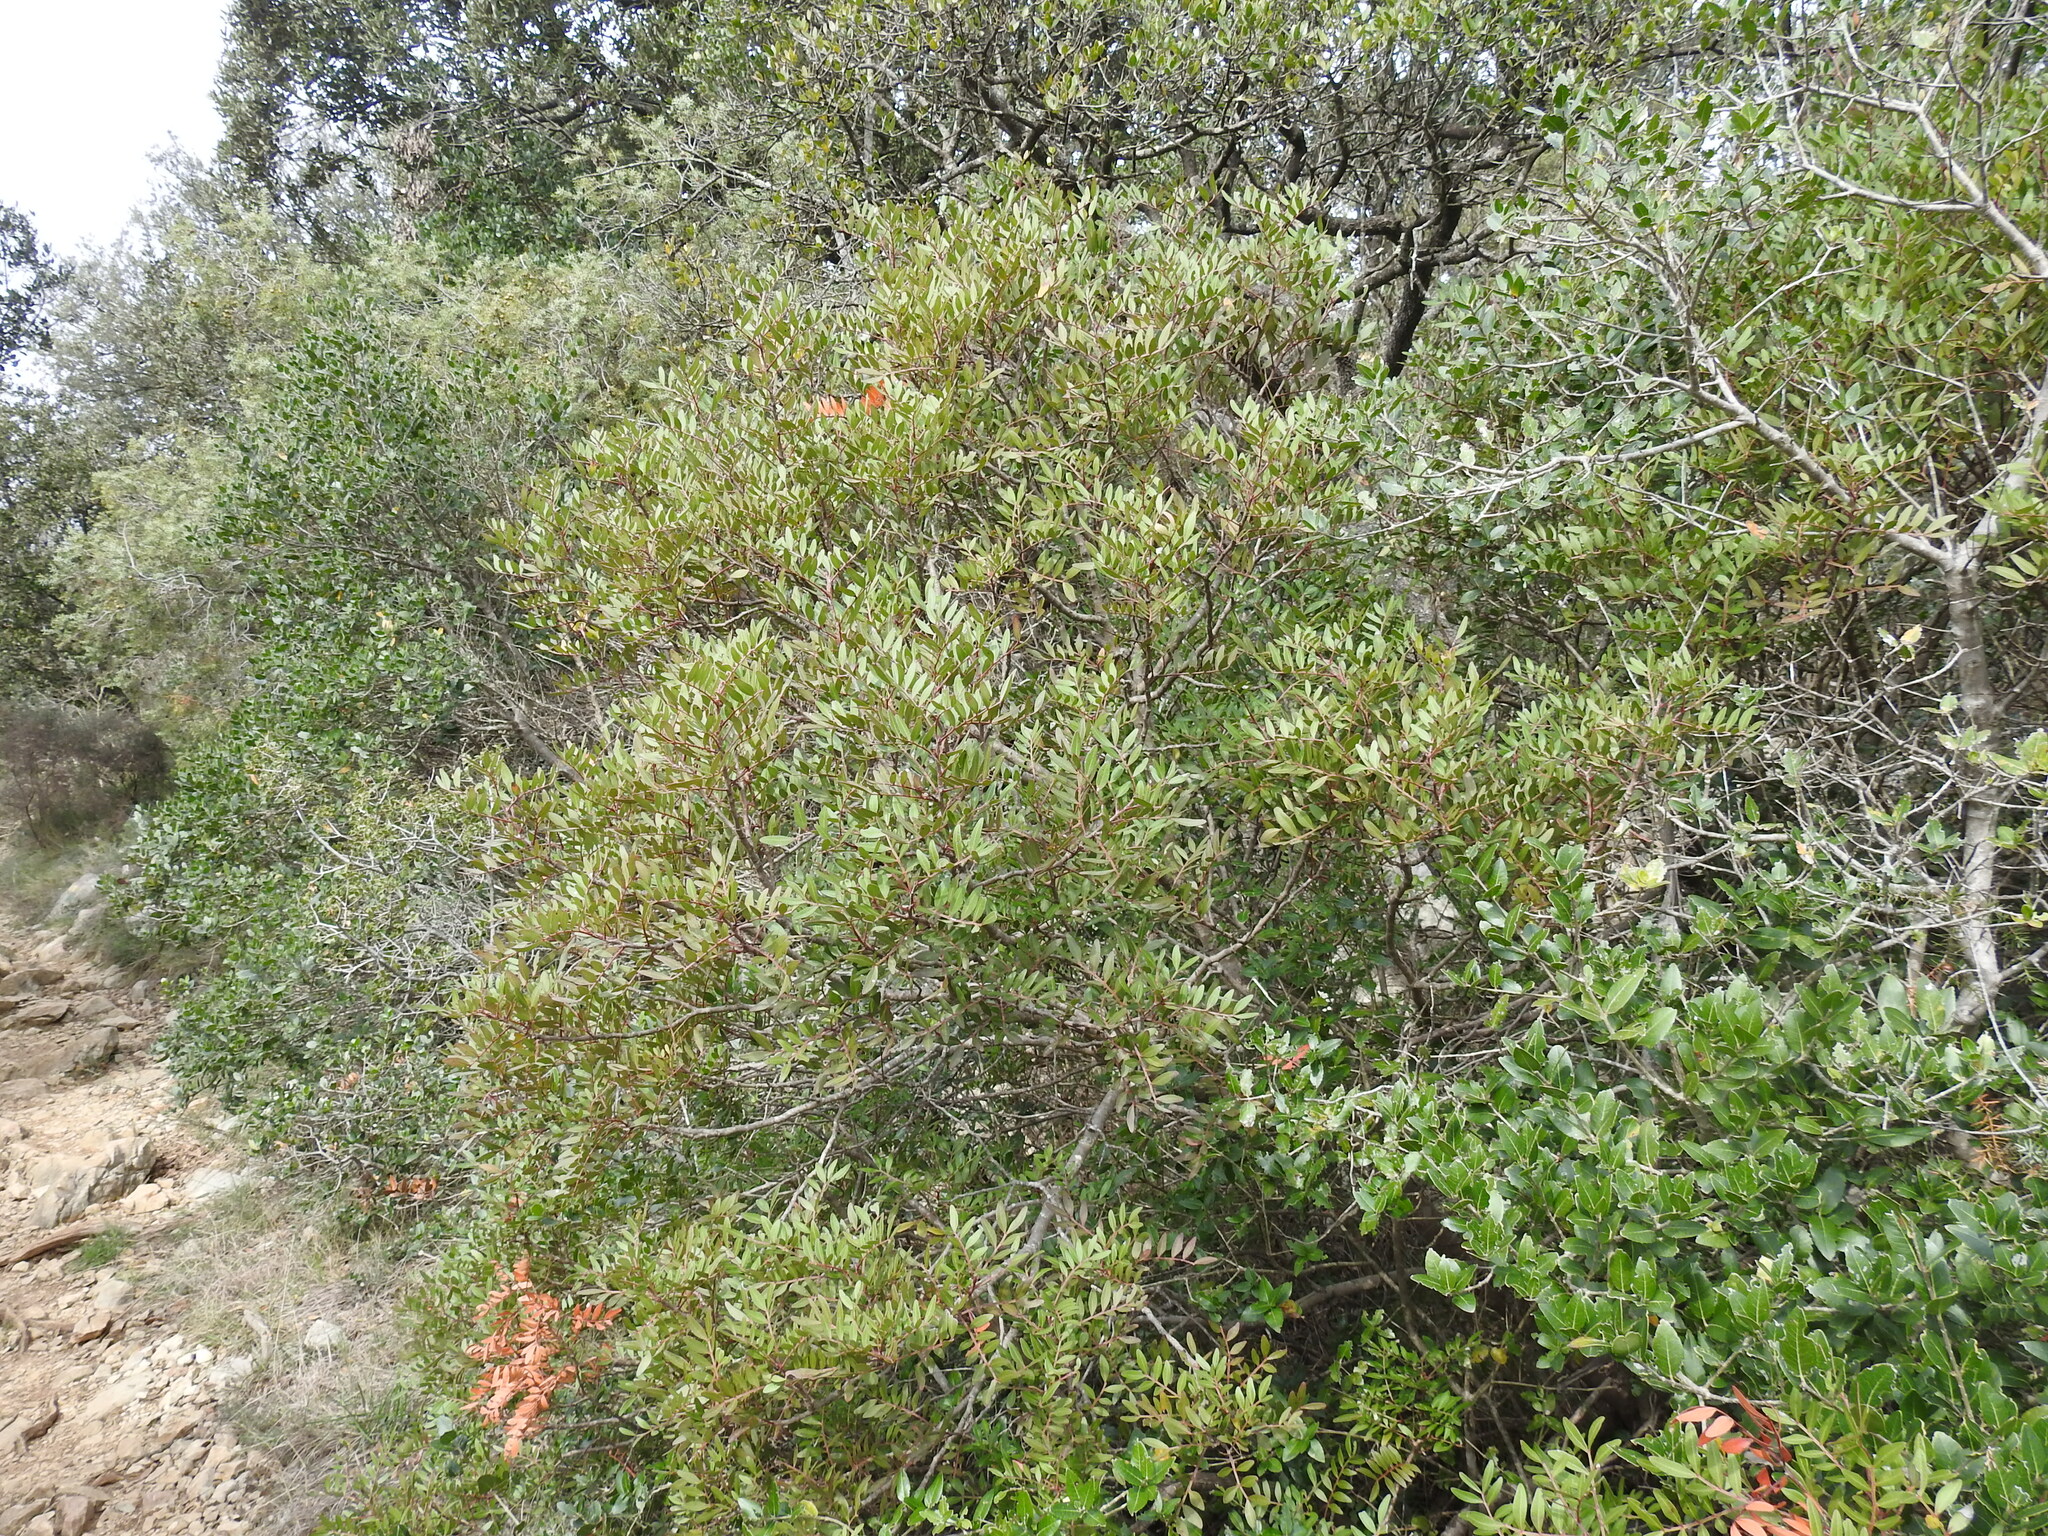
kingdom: Plantae
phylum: Tracheophyta
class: Magnoliopsida
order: Sapindales
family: Anacardiaceae
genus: Pistacia
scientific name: Pistacia lentiscus
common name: Lentisk
